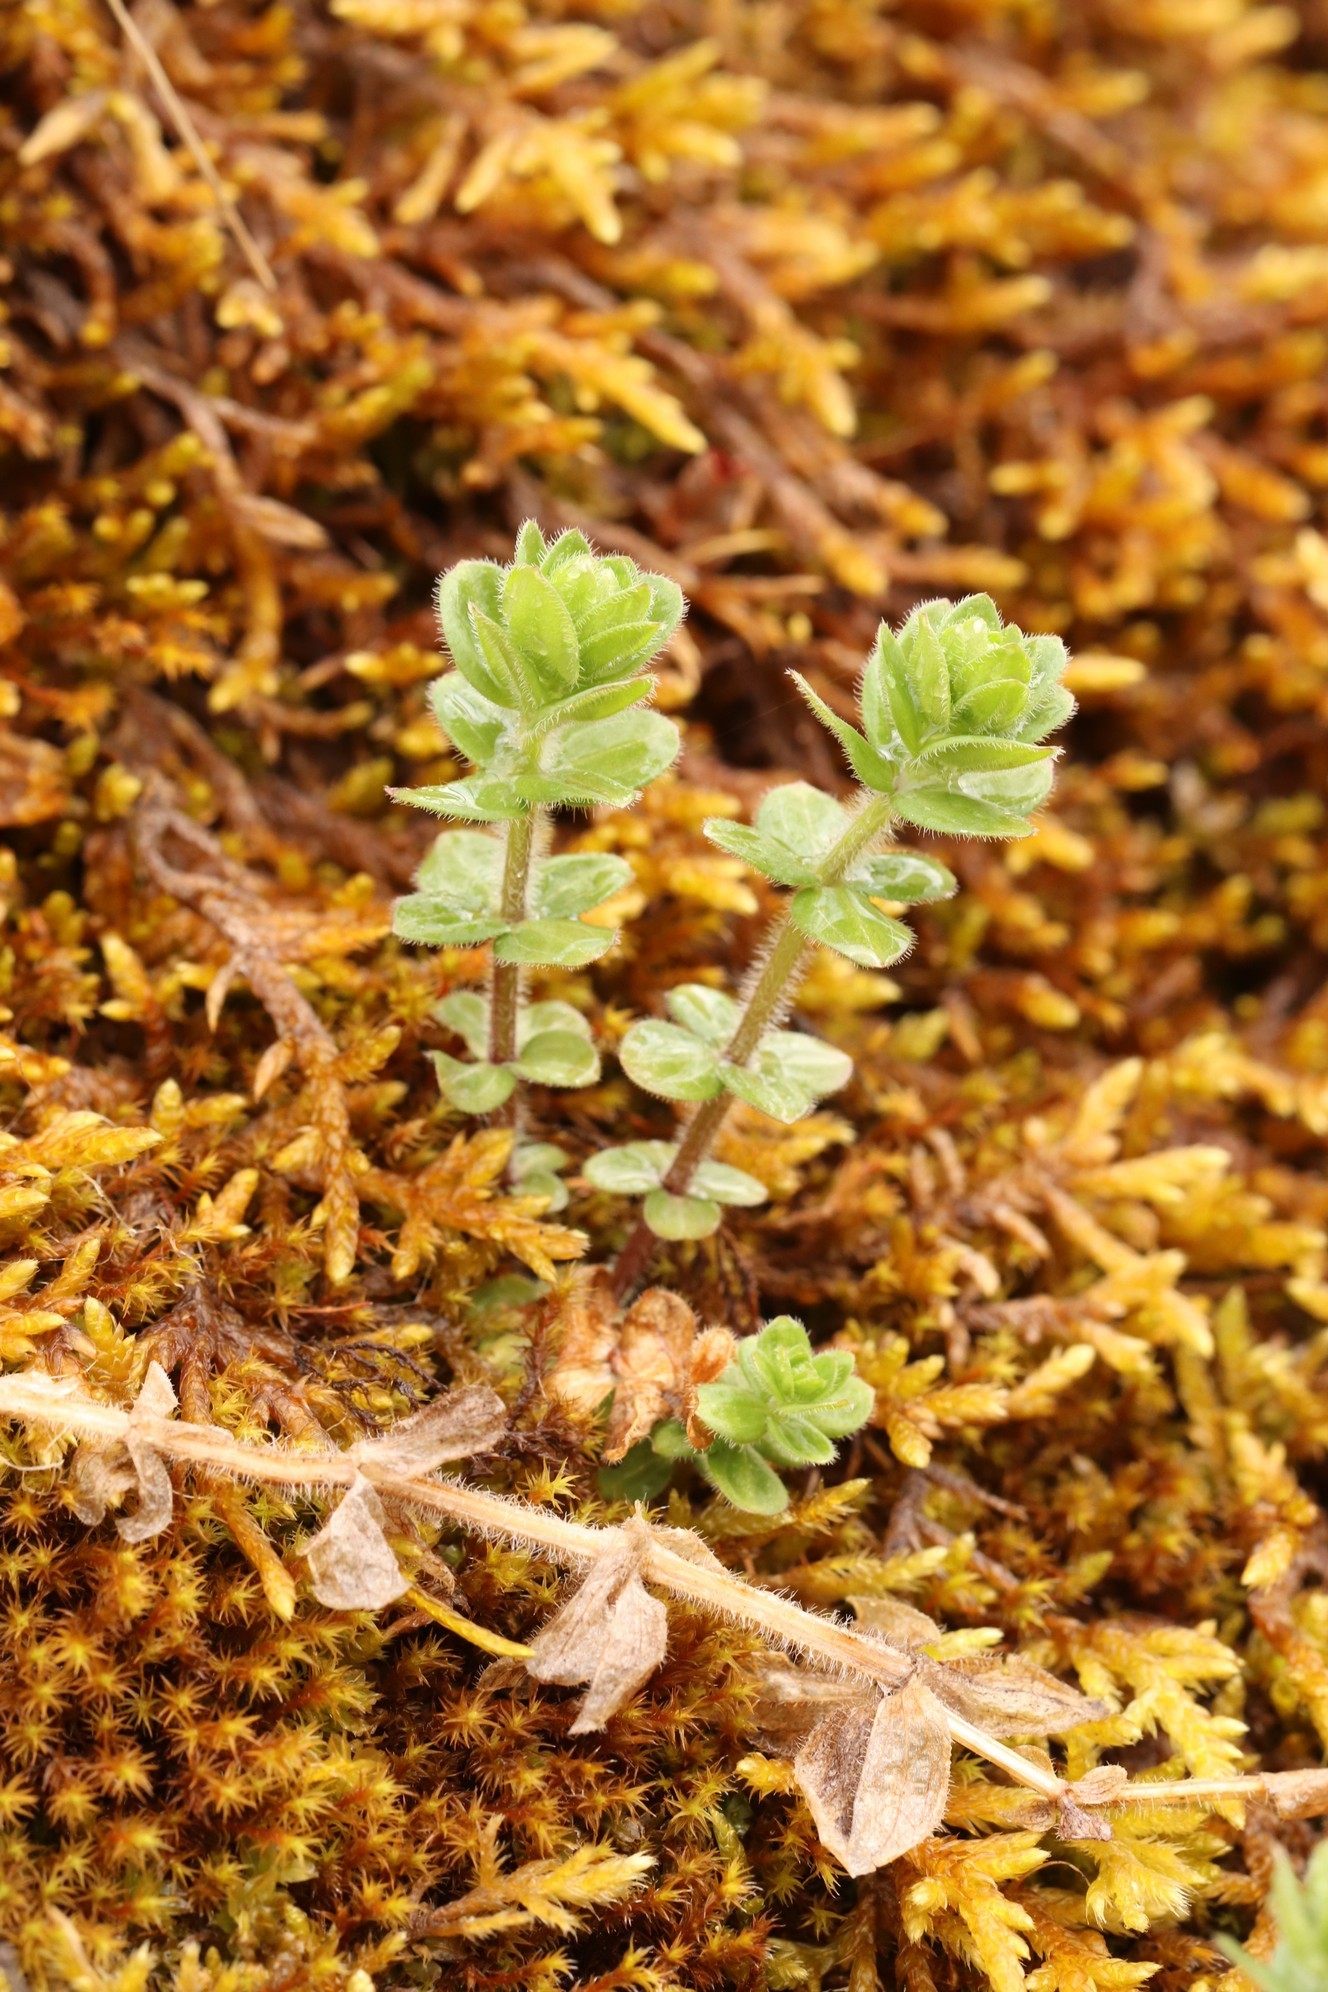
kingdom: Plantae
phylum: Tracheophyta
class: Magnoliopsida
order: Gentianales
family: Rubiaceae
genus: Cruciata
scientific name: Cruciata glabra
